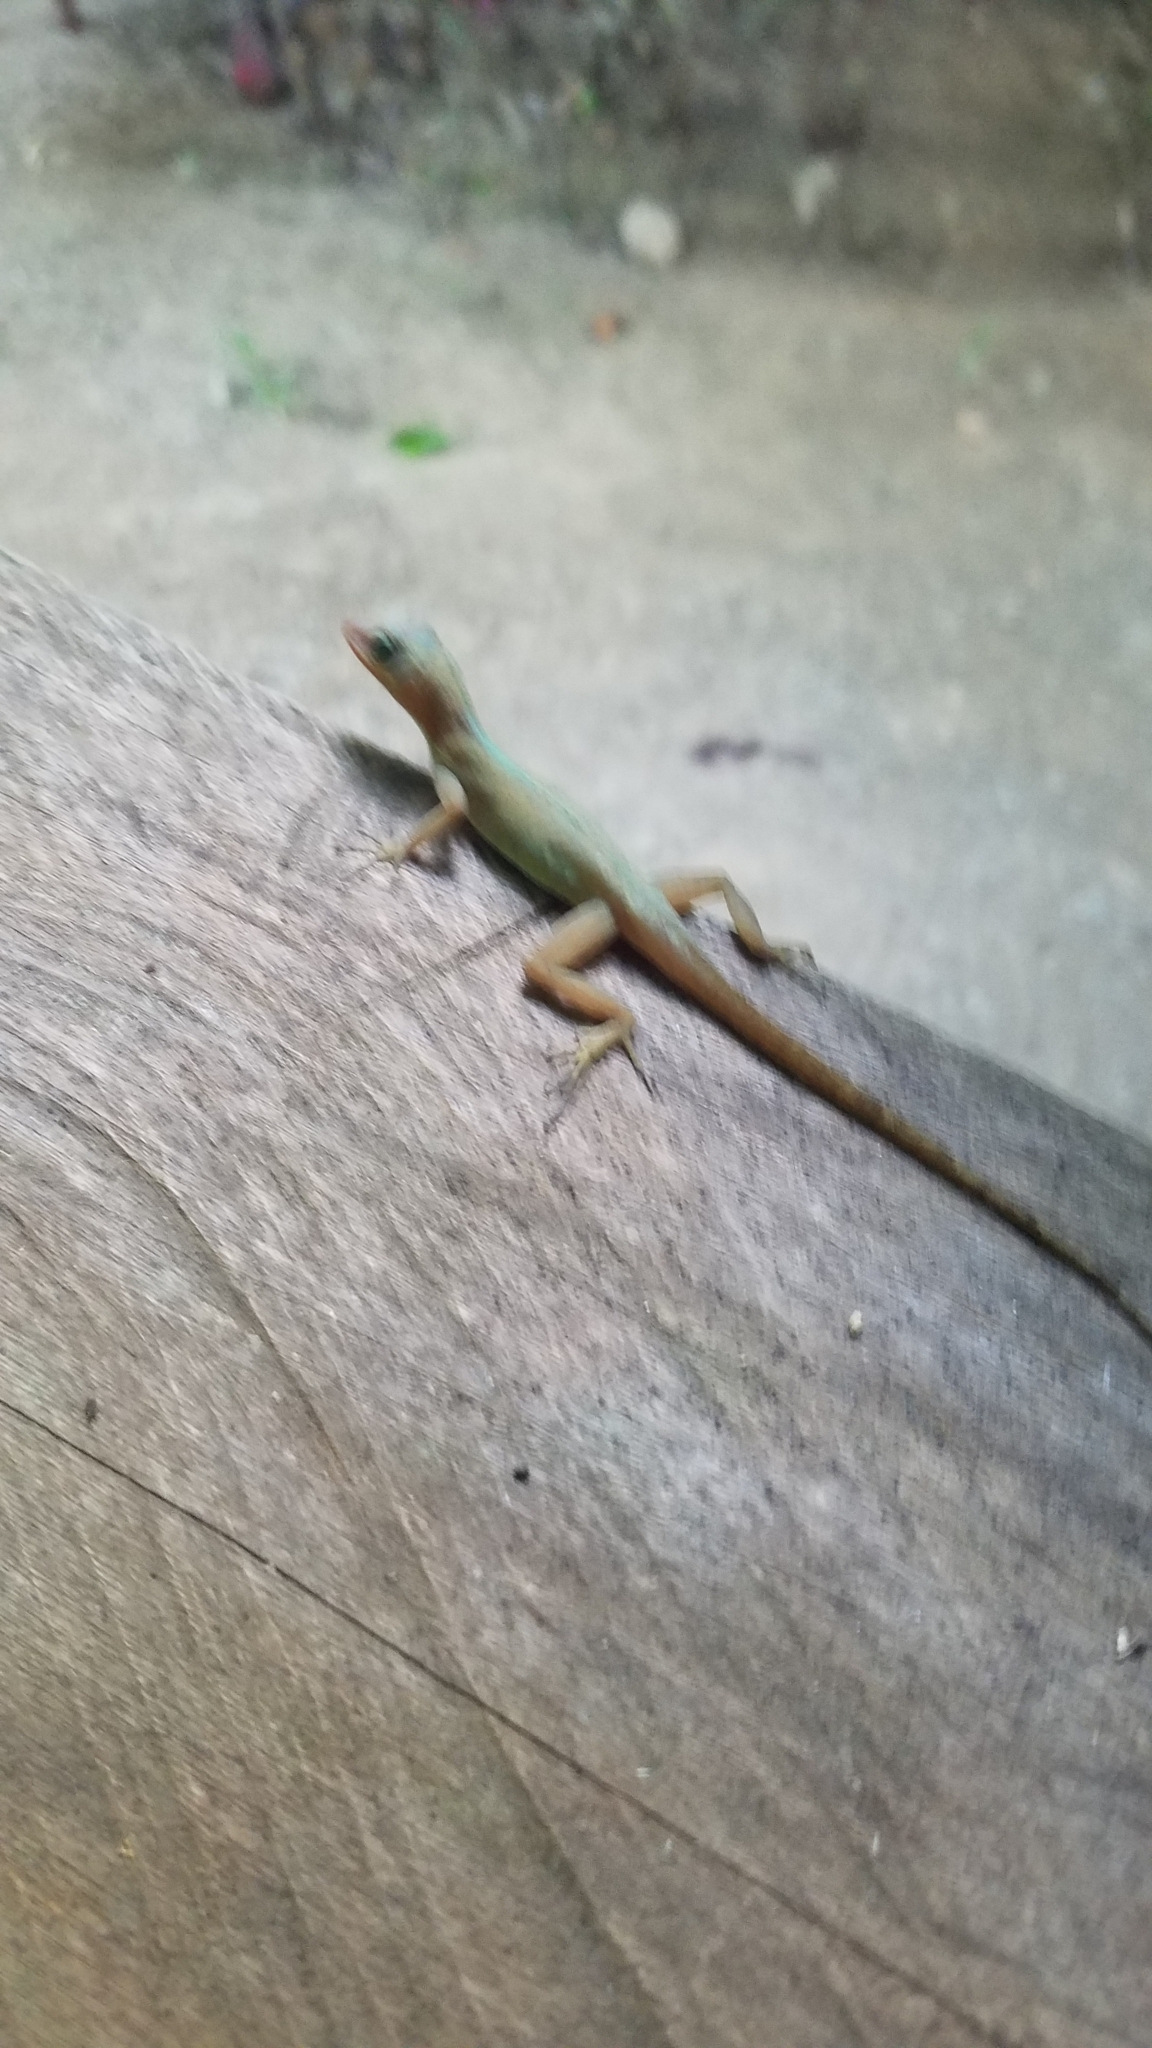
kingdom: Animalia
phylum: Chordata
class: Squamata
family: Dactyloidae
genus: Anolis
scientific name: Anolis oculatus
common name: Dominica anole
